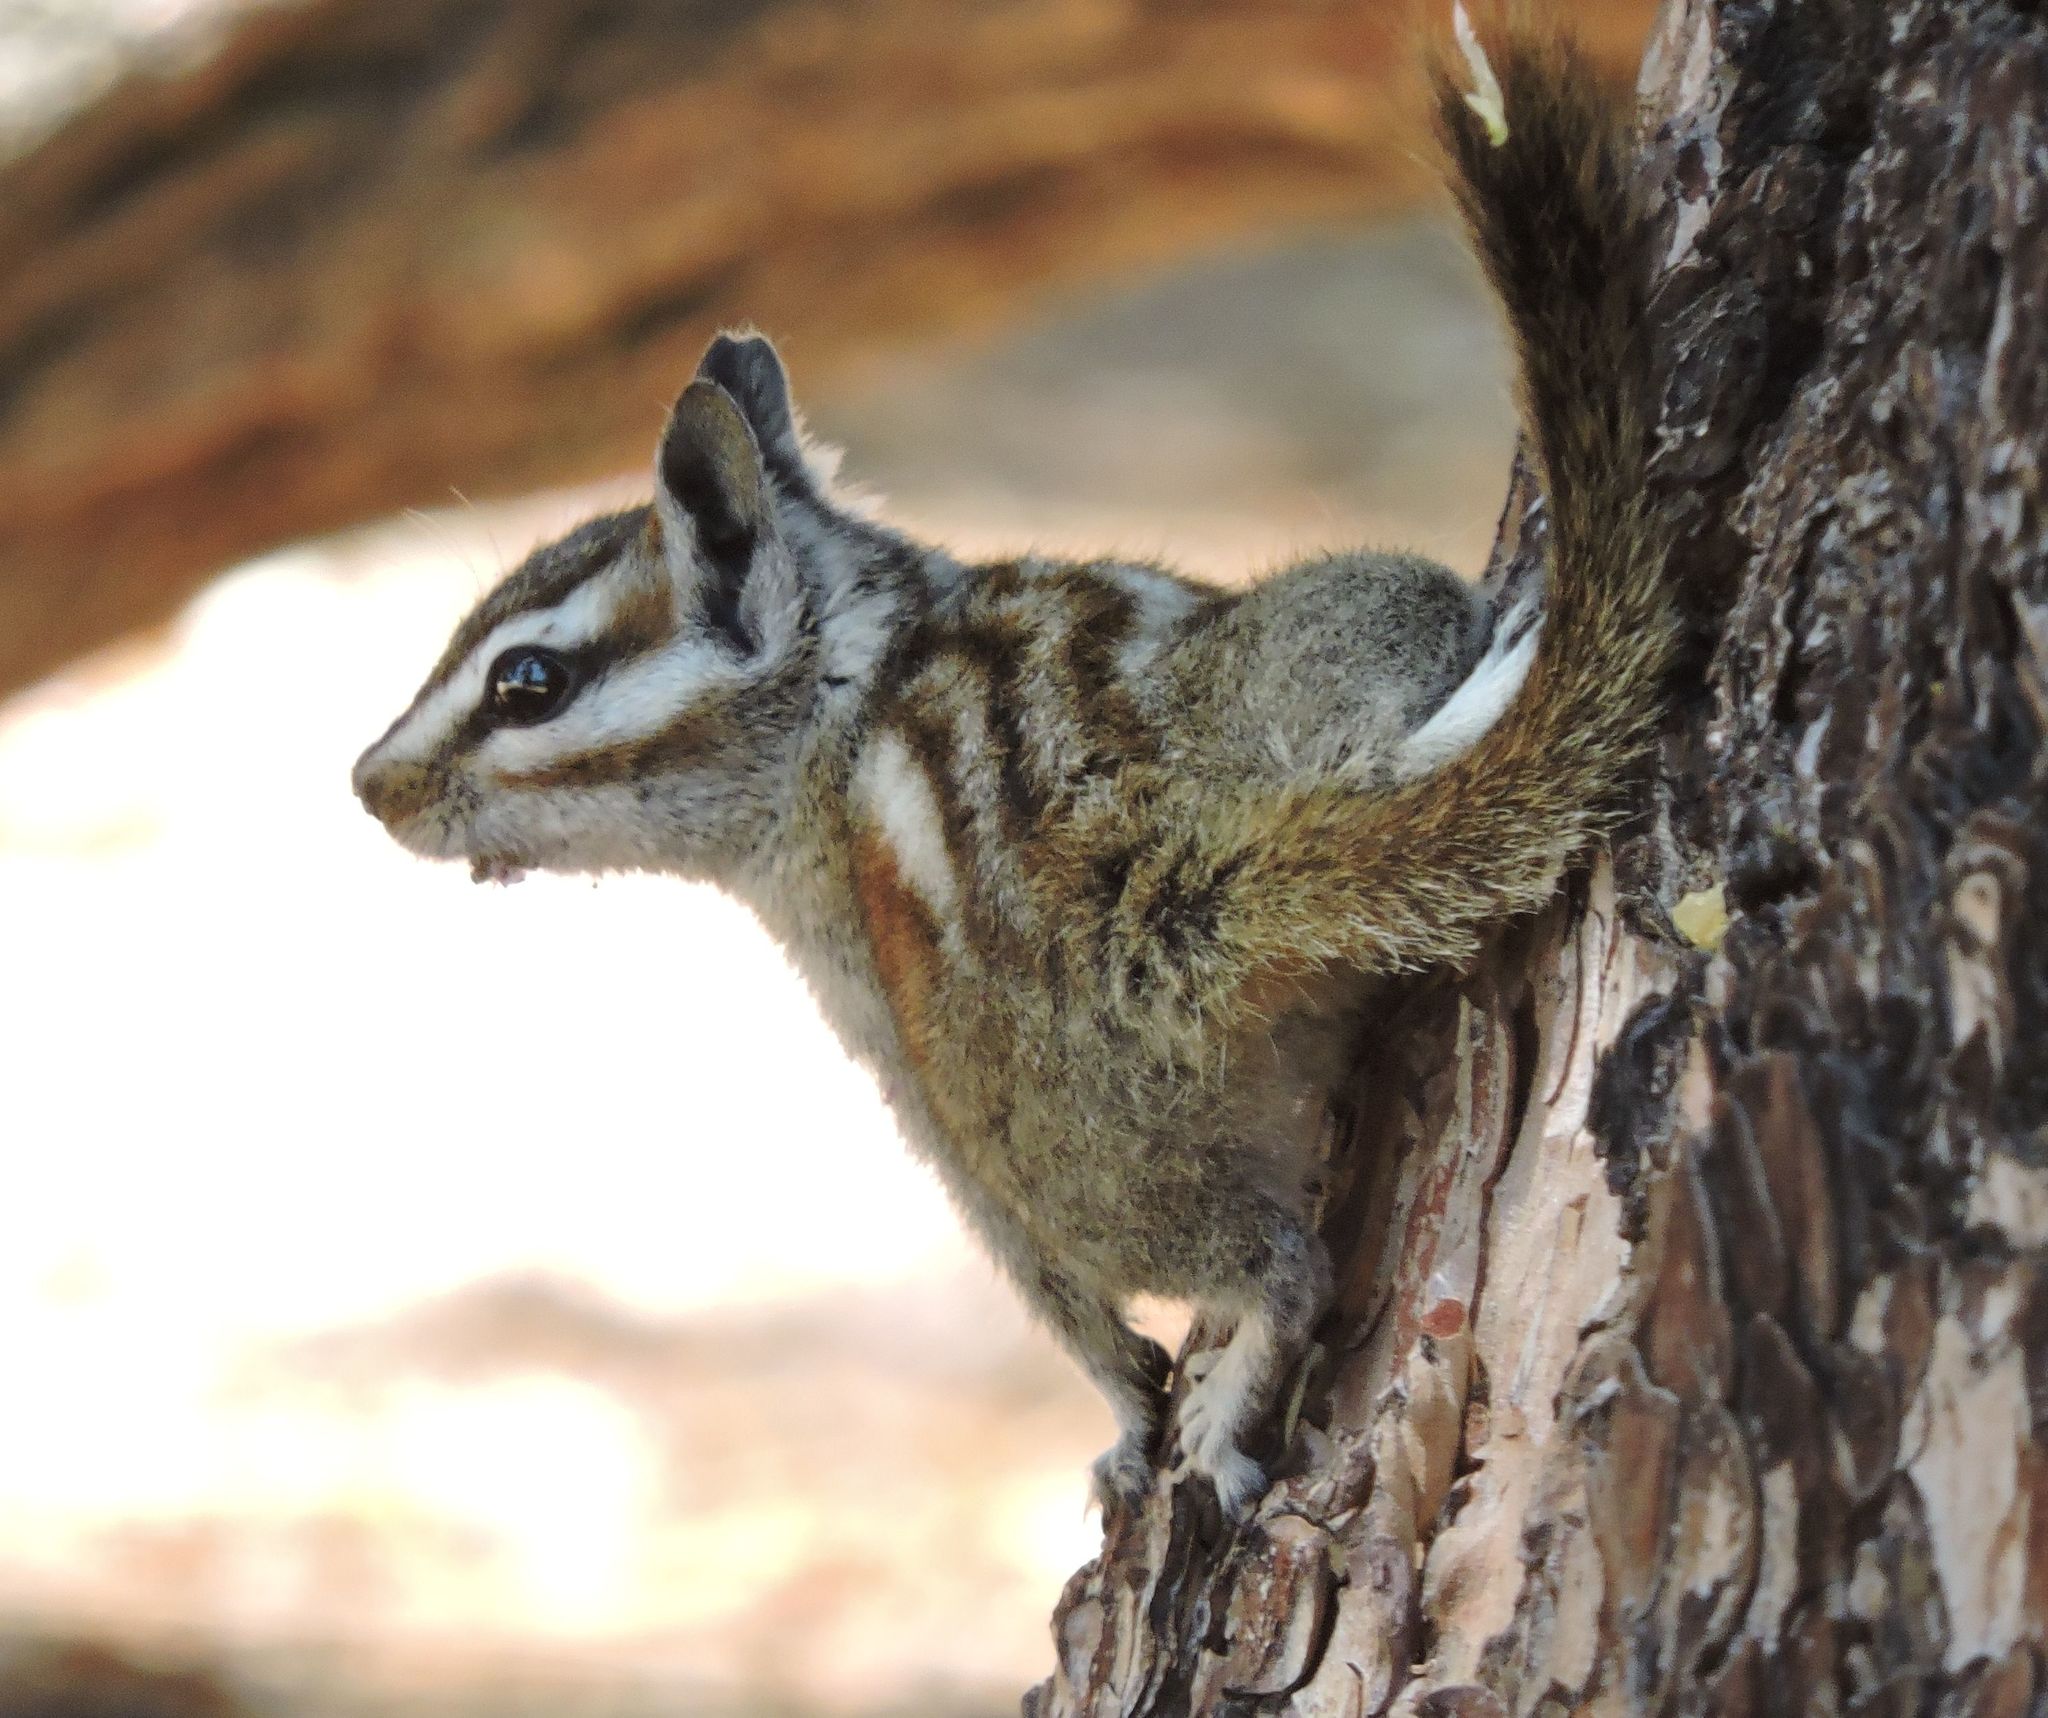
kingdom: Animalia
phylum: Chordata
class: Mammalia
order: Rodentia
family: Sciuridae
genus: Tamias
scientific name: Tamias merriami
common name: Merriam's chipmunk
